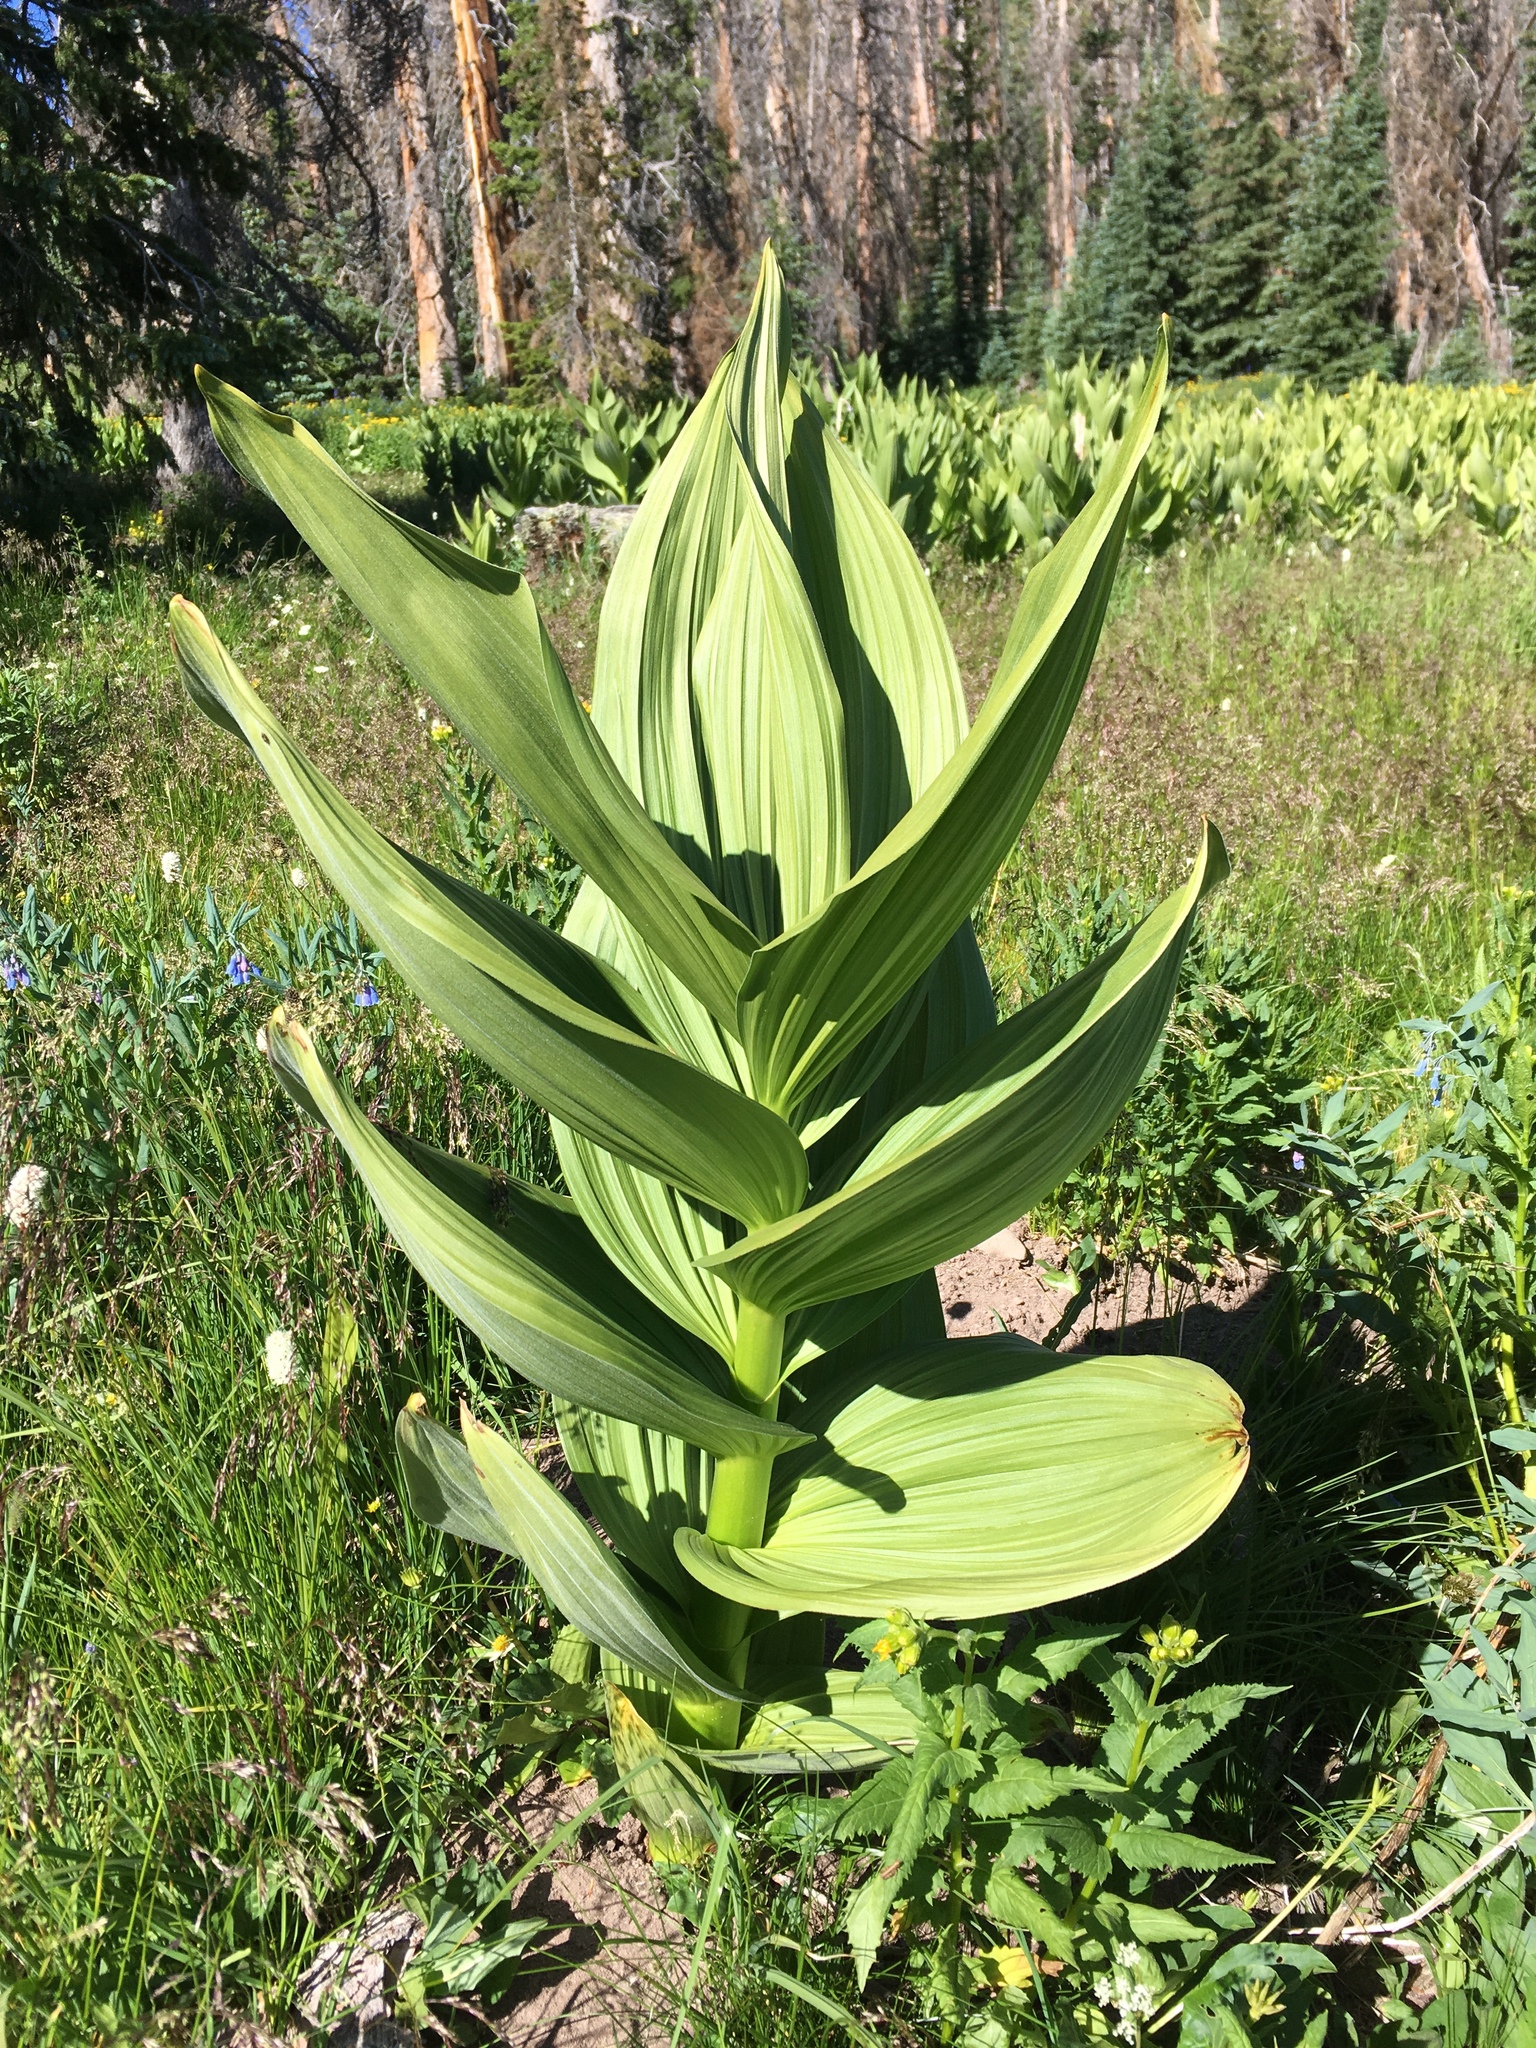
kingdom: Plantae
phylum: Tracheophyta
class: Liliopsida
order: Liliales
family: Melanthiaceae
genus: Veratrum
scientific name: Veratrum californicum
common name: California veratrum
